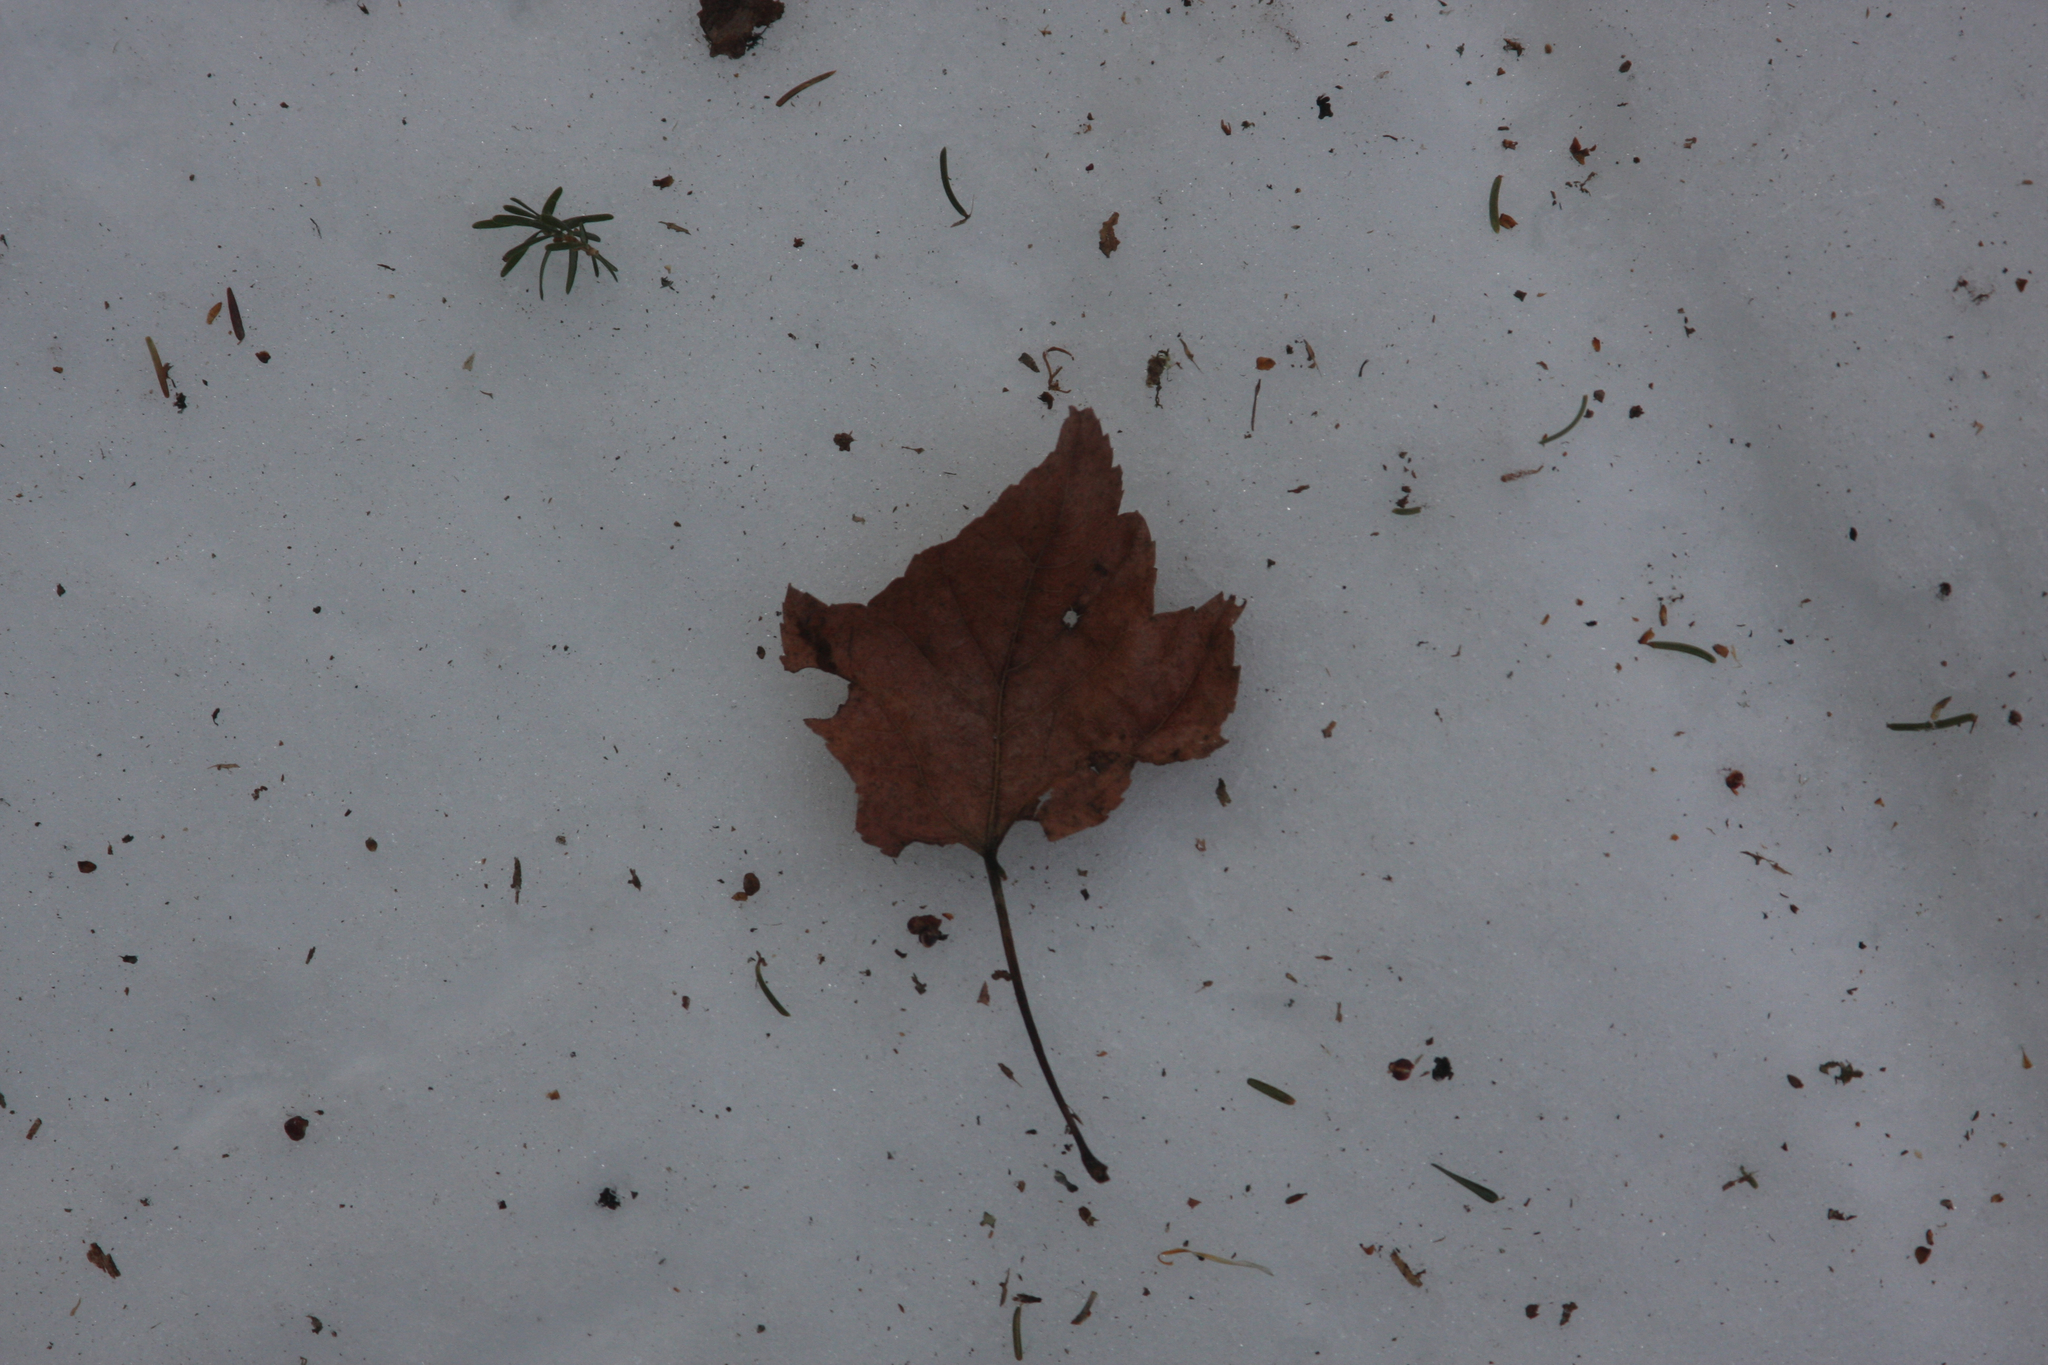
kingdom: Plantae
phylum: Tracheophyta
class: Magnoliopsida
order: Sapindales
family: Sapindaceae
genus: Acer
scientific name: Acer rubrum
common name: Red maple
